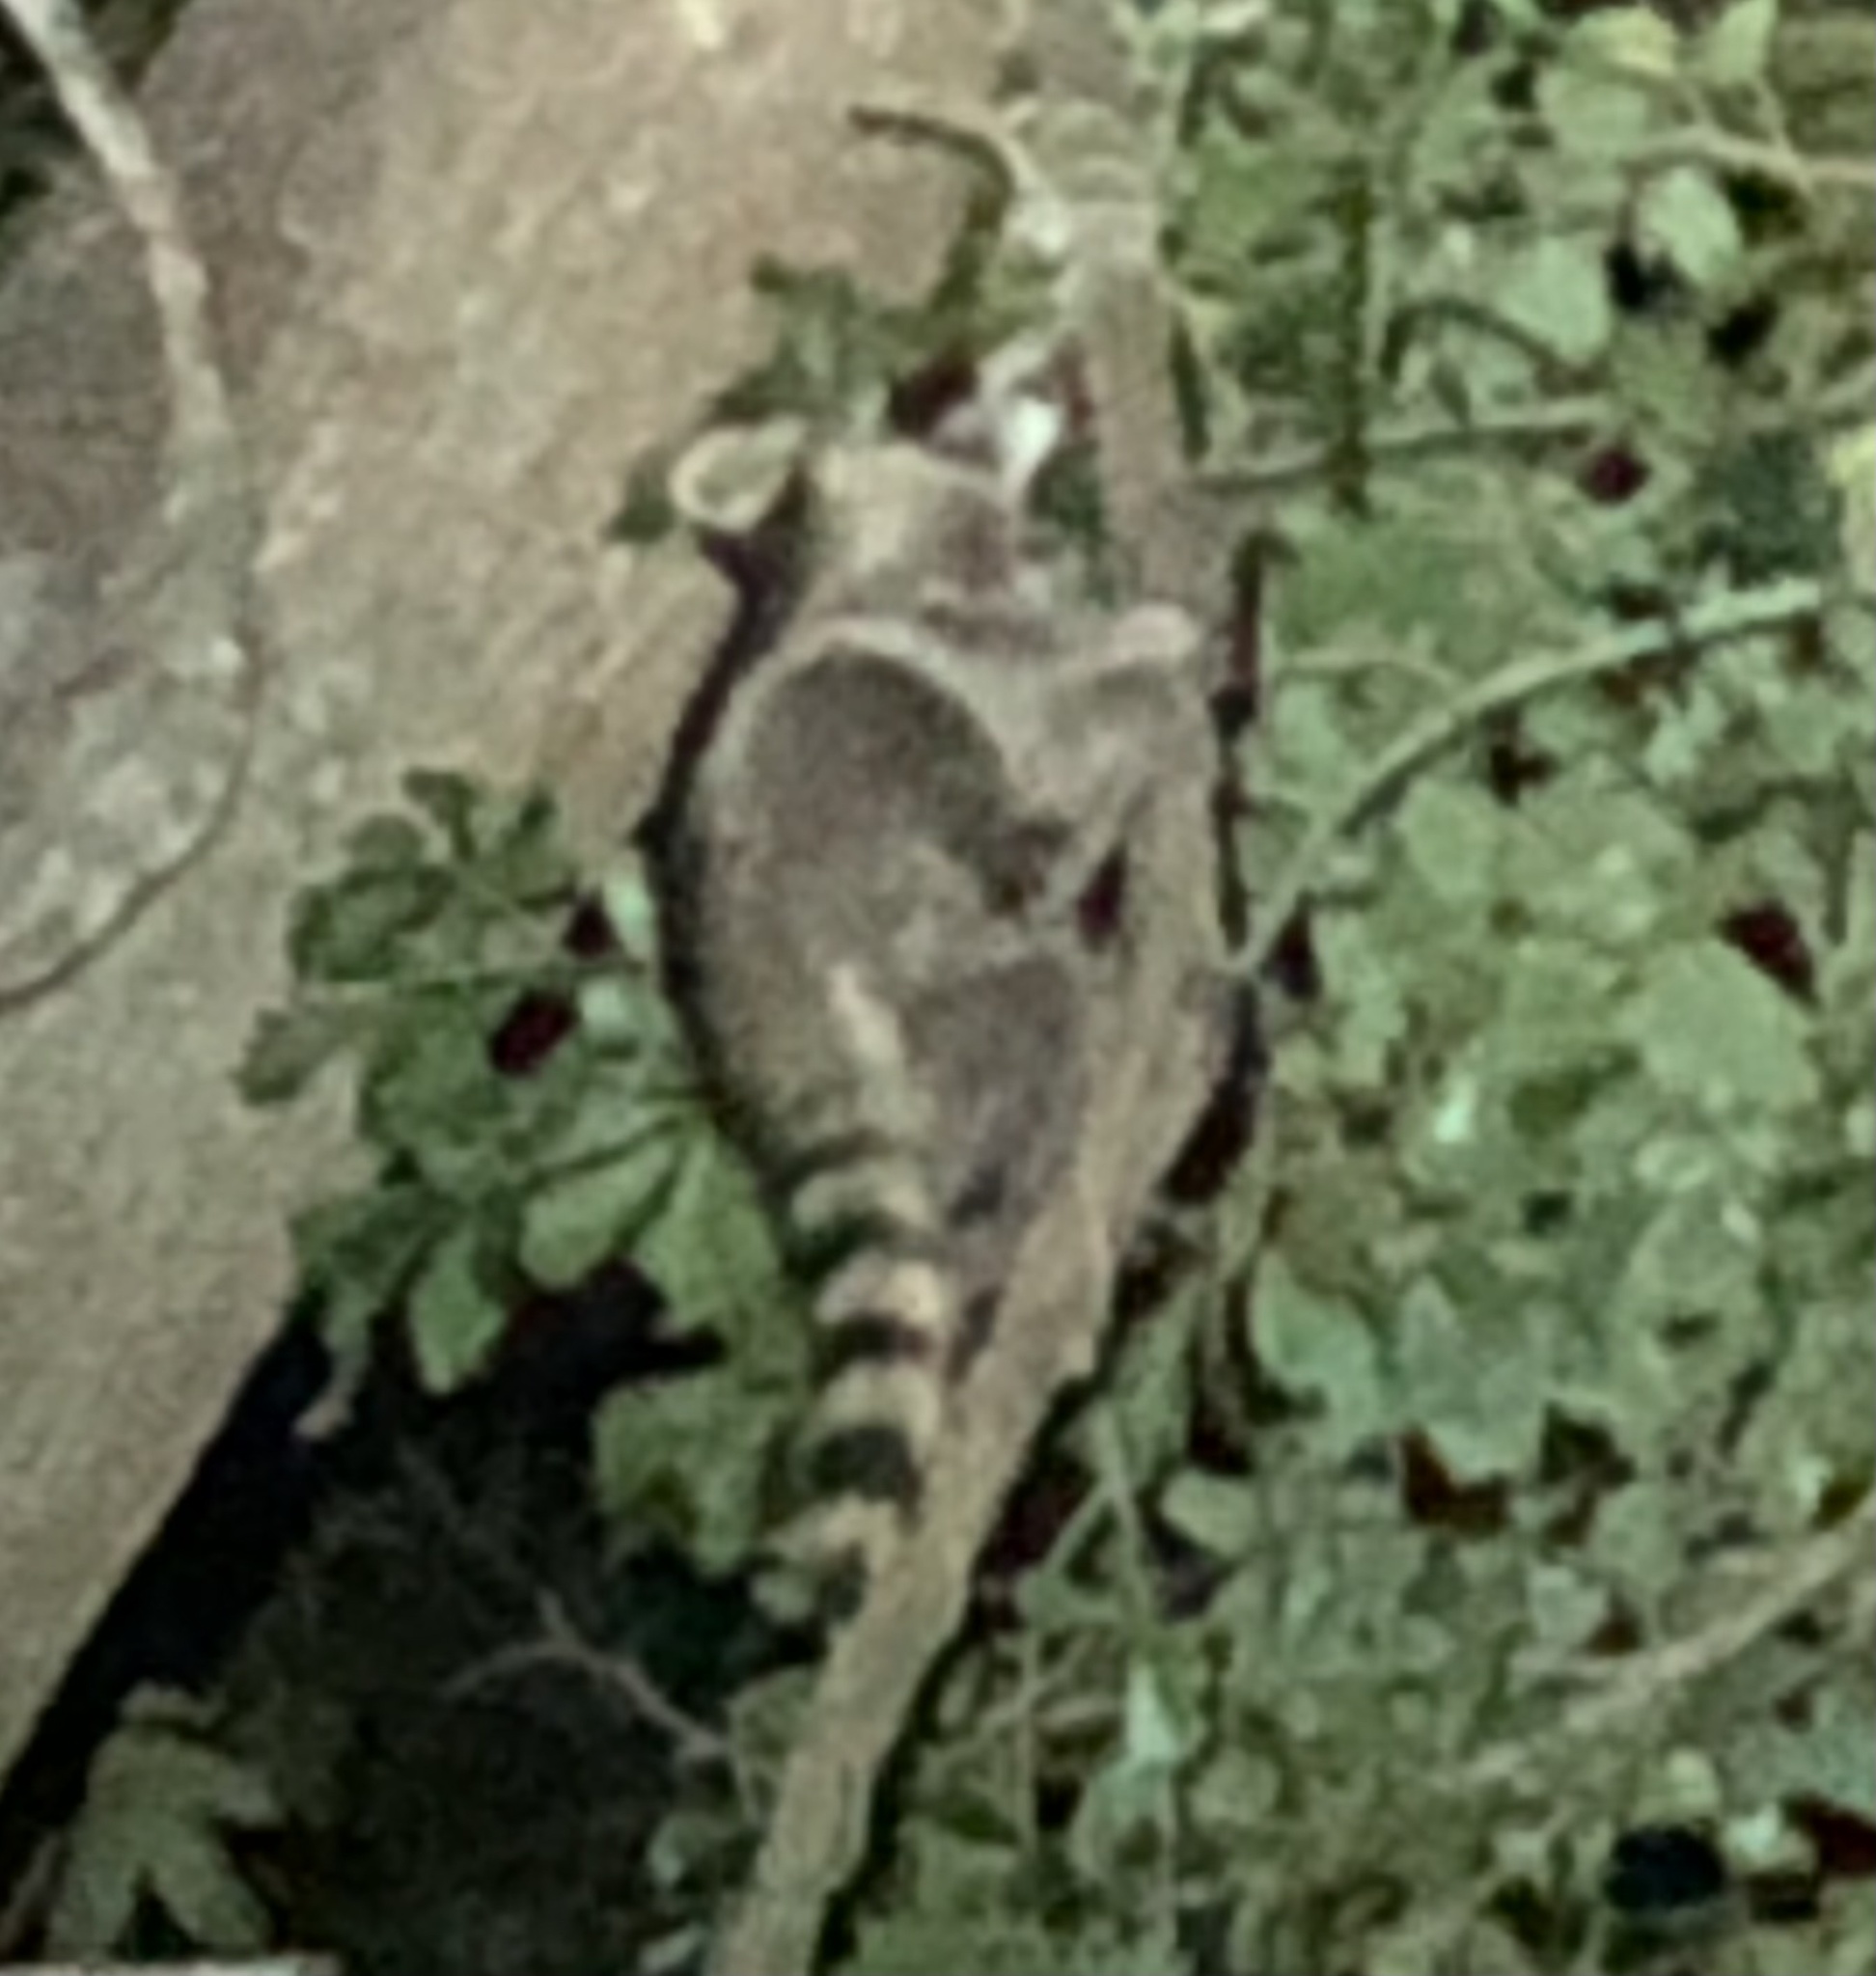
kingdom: Animalia
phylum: Chordata
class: Mammalia
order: Carnivora
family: Procyonidae
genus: Procyon
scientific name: Procyon lotor
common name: Raccoon
